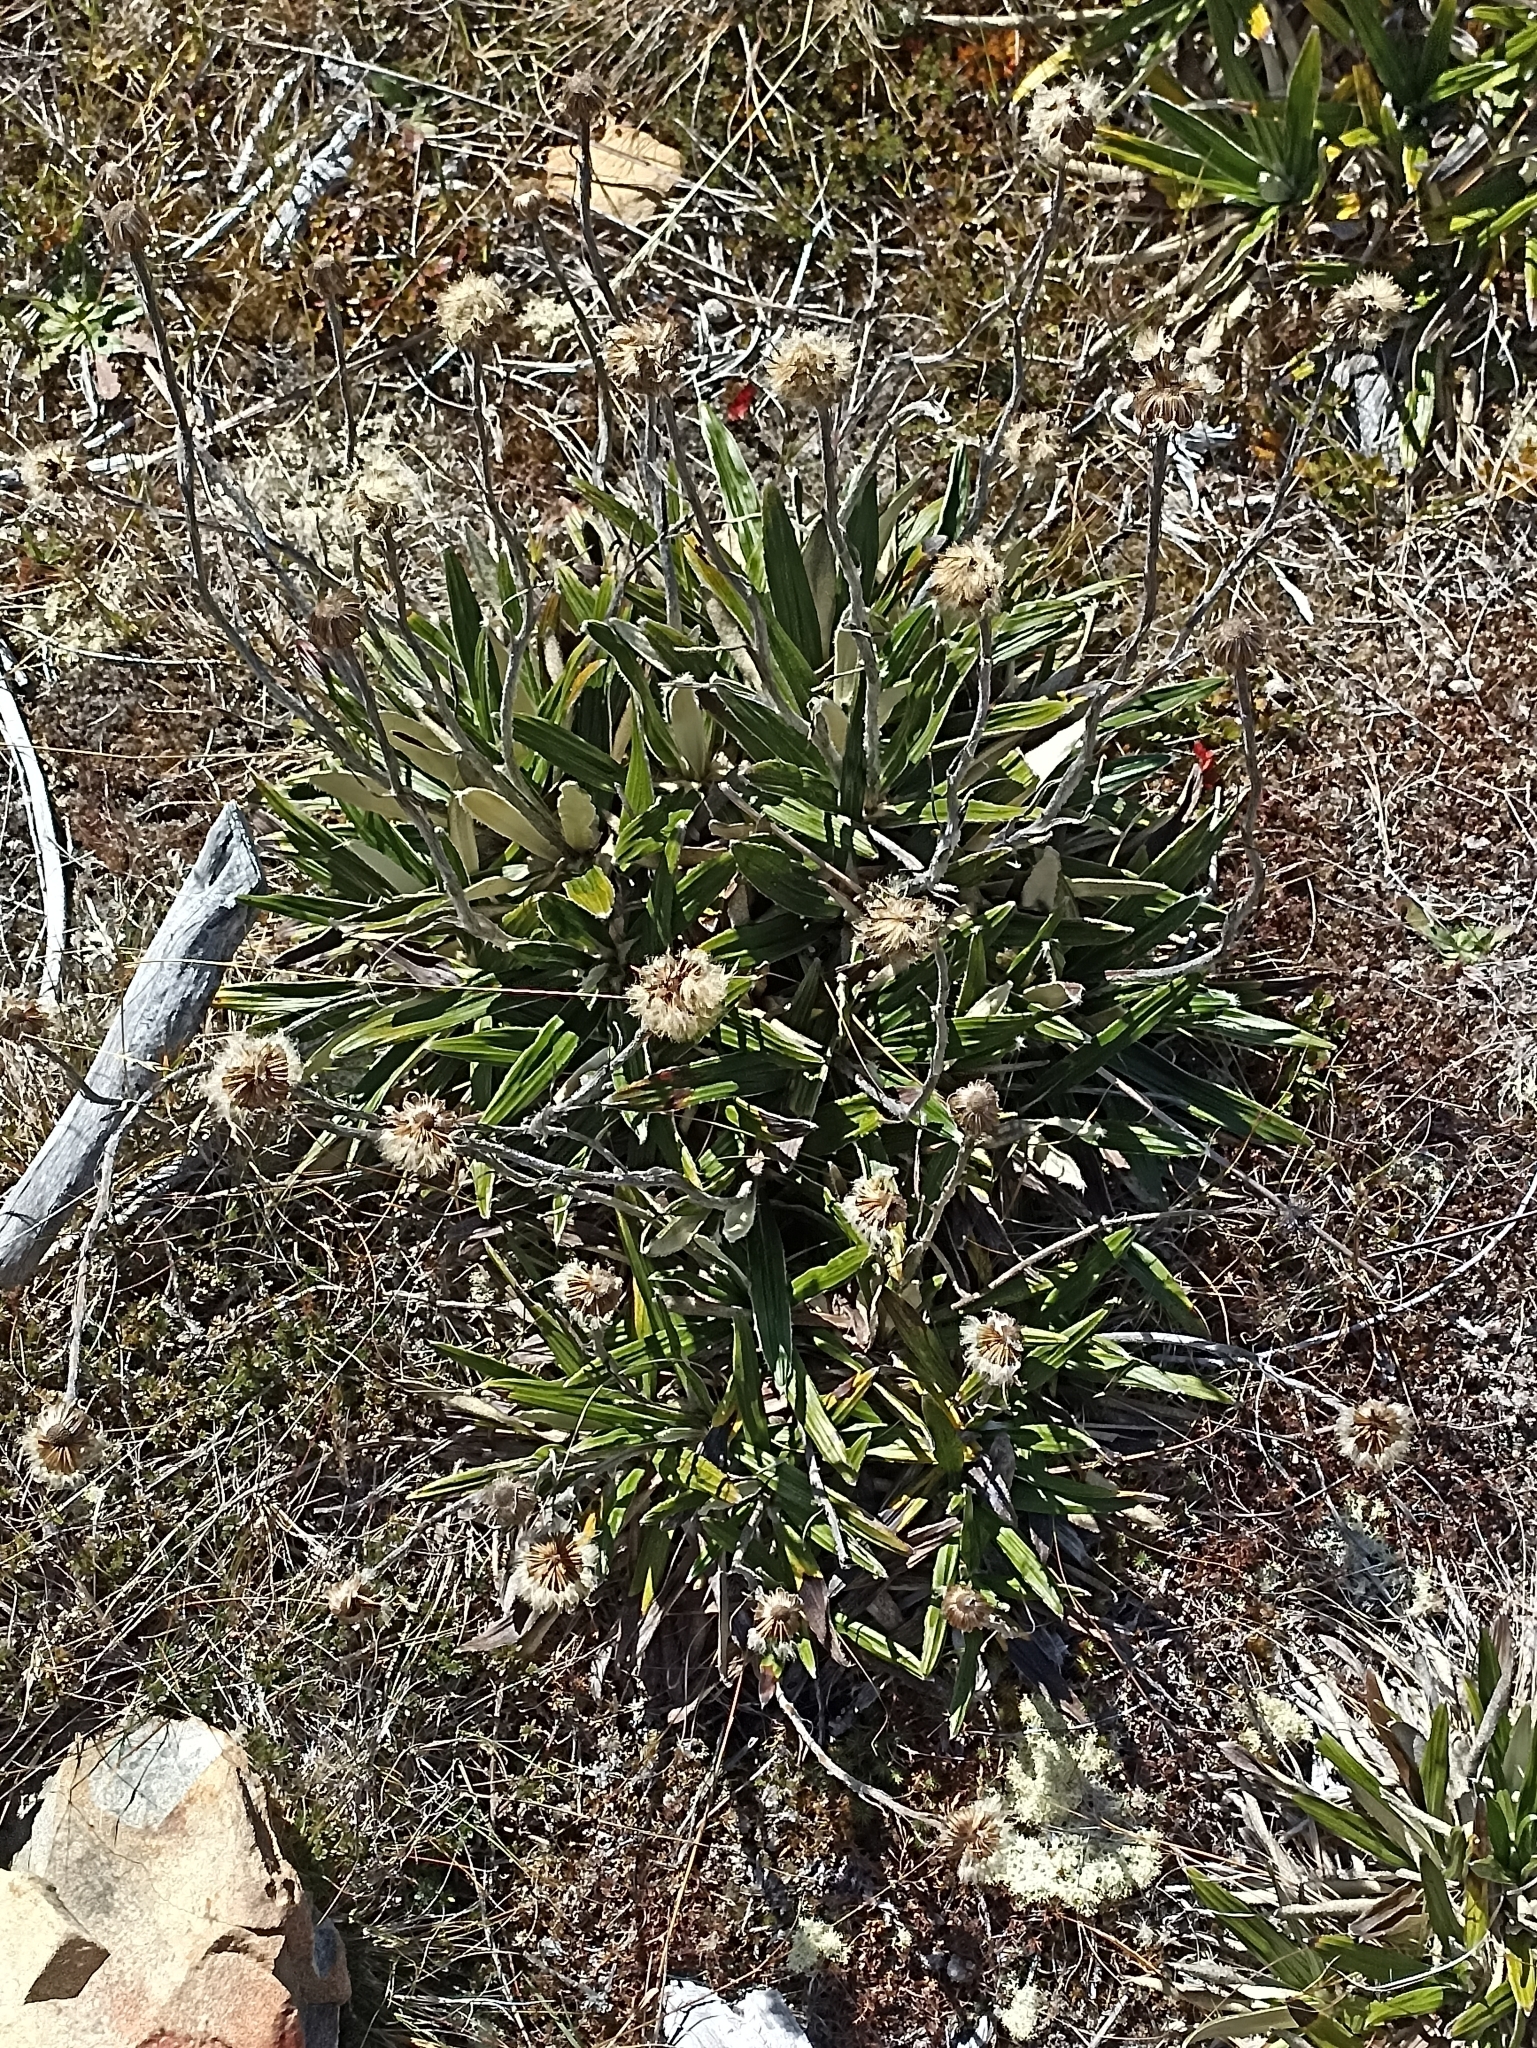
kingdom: Plantae
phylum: Tracheophyta
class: Magnoliopsida
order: Asterales
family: Asteraceae
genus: Celmisia
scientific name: Celmisia spectabilis
